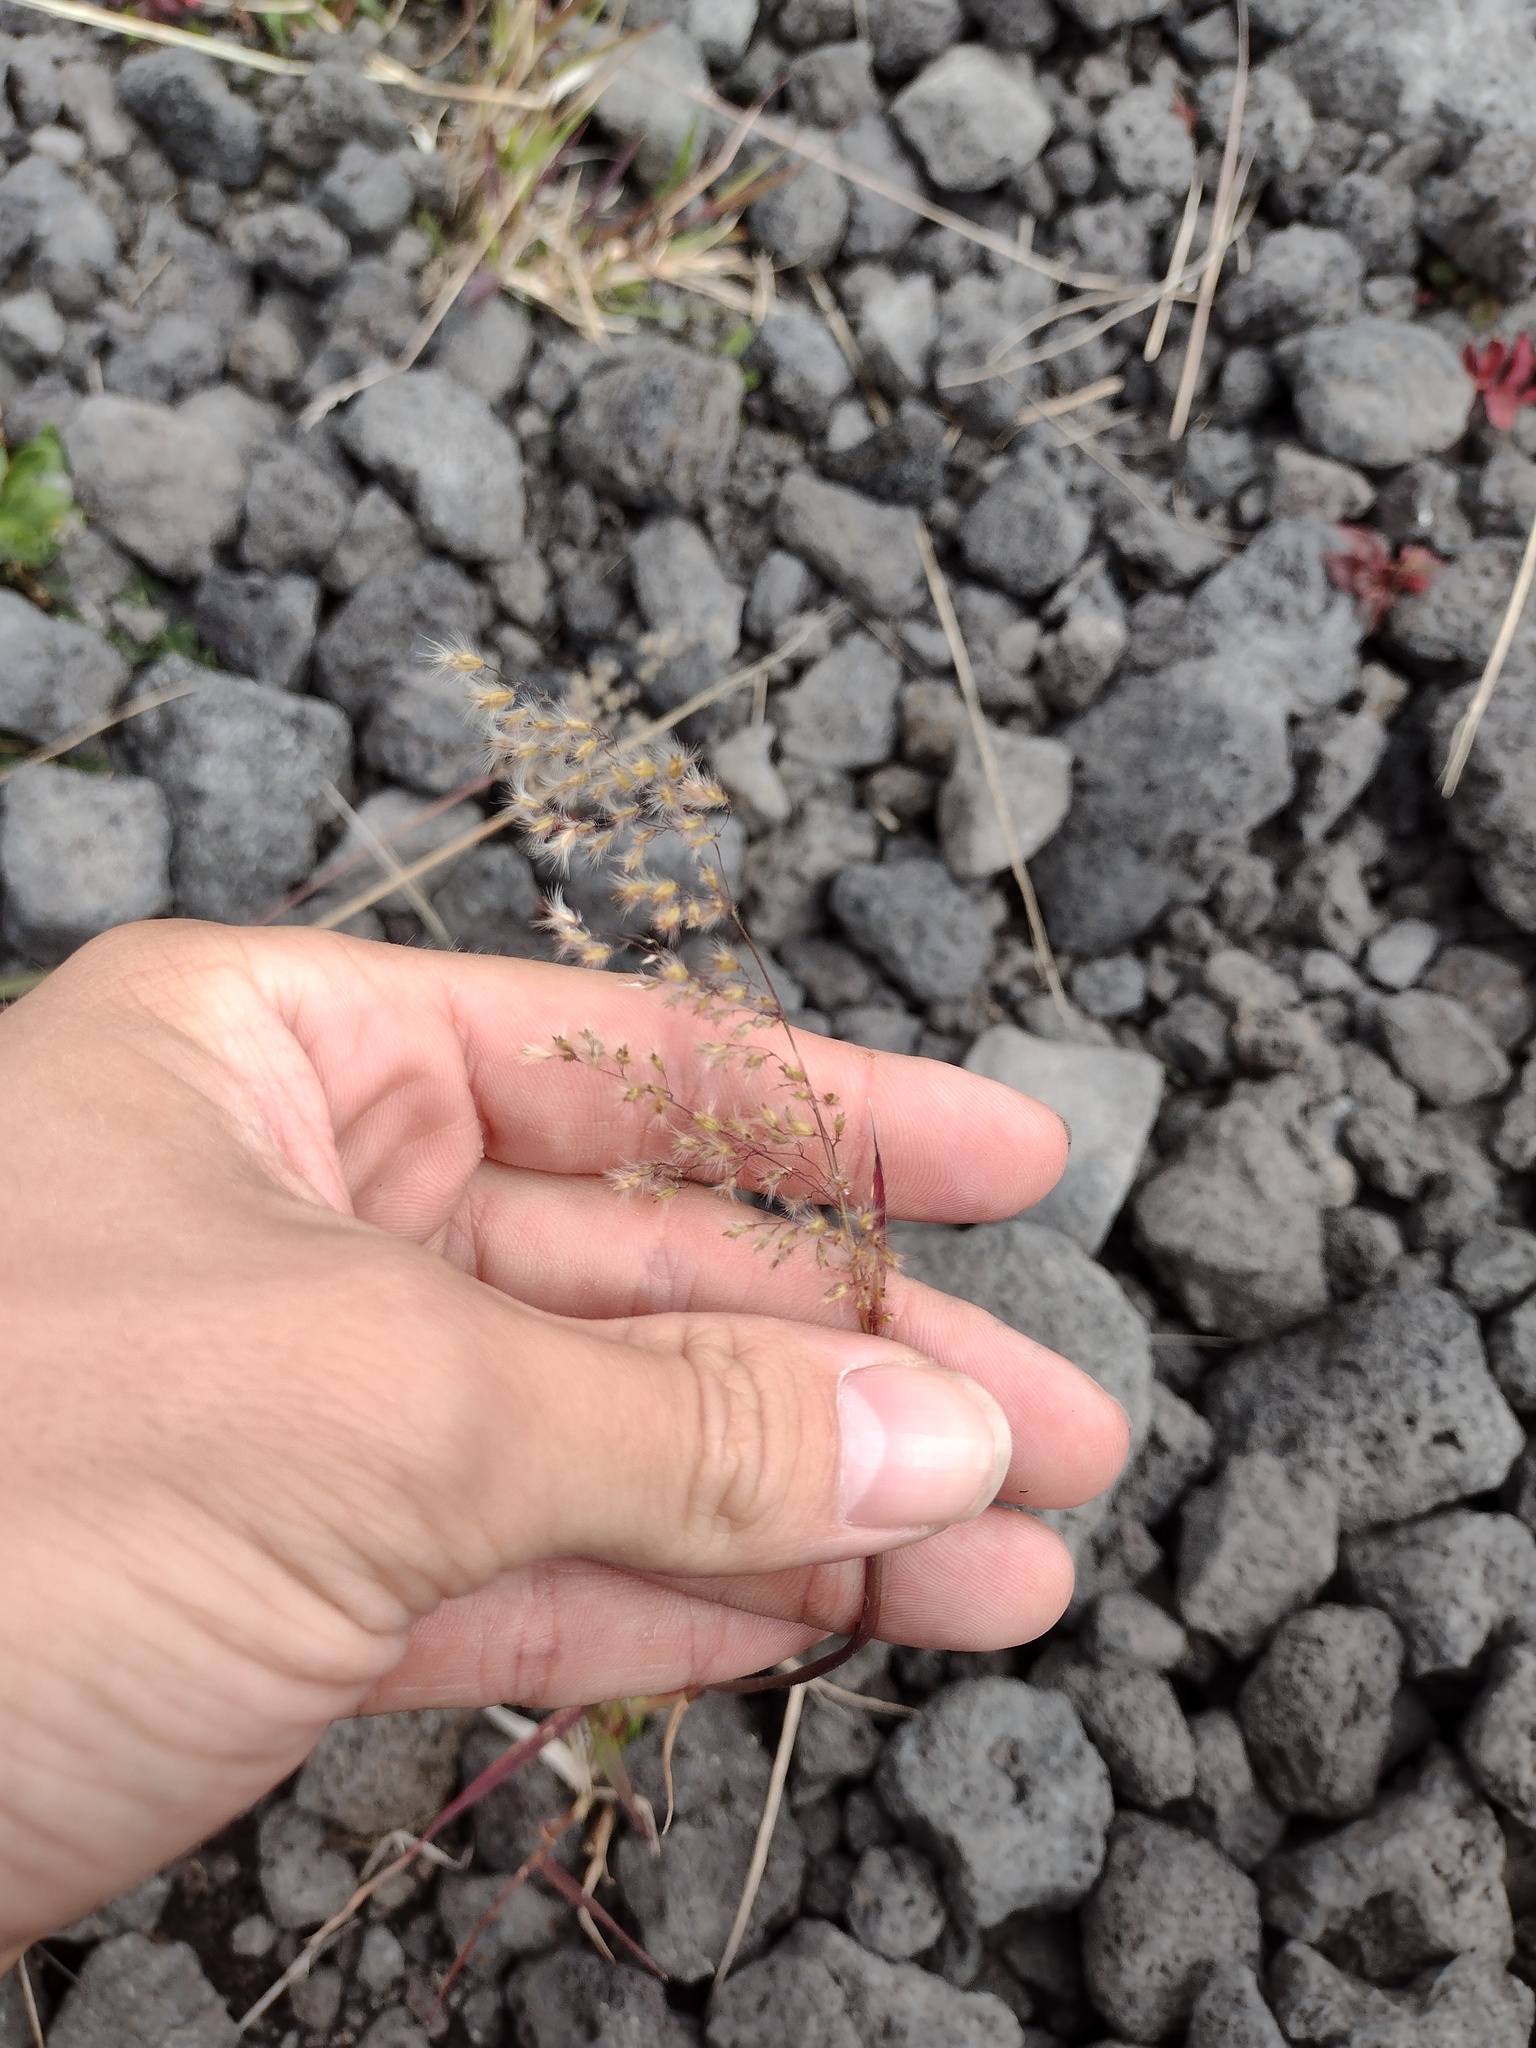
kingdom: Plantae
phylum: Tracheophyta
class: Liliopsida
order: Poales
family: Poaceae
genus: Melinis
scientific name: Melinis repens
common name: Rose natal grass
